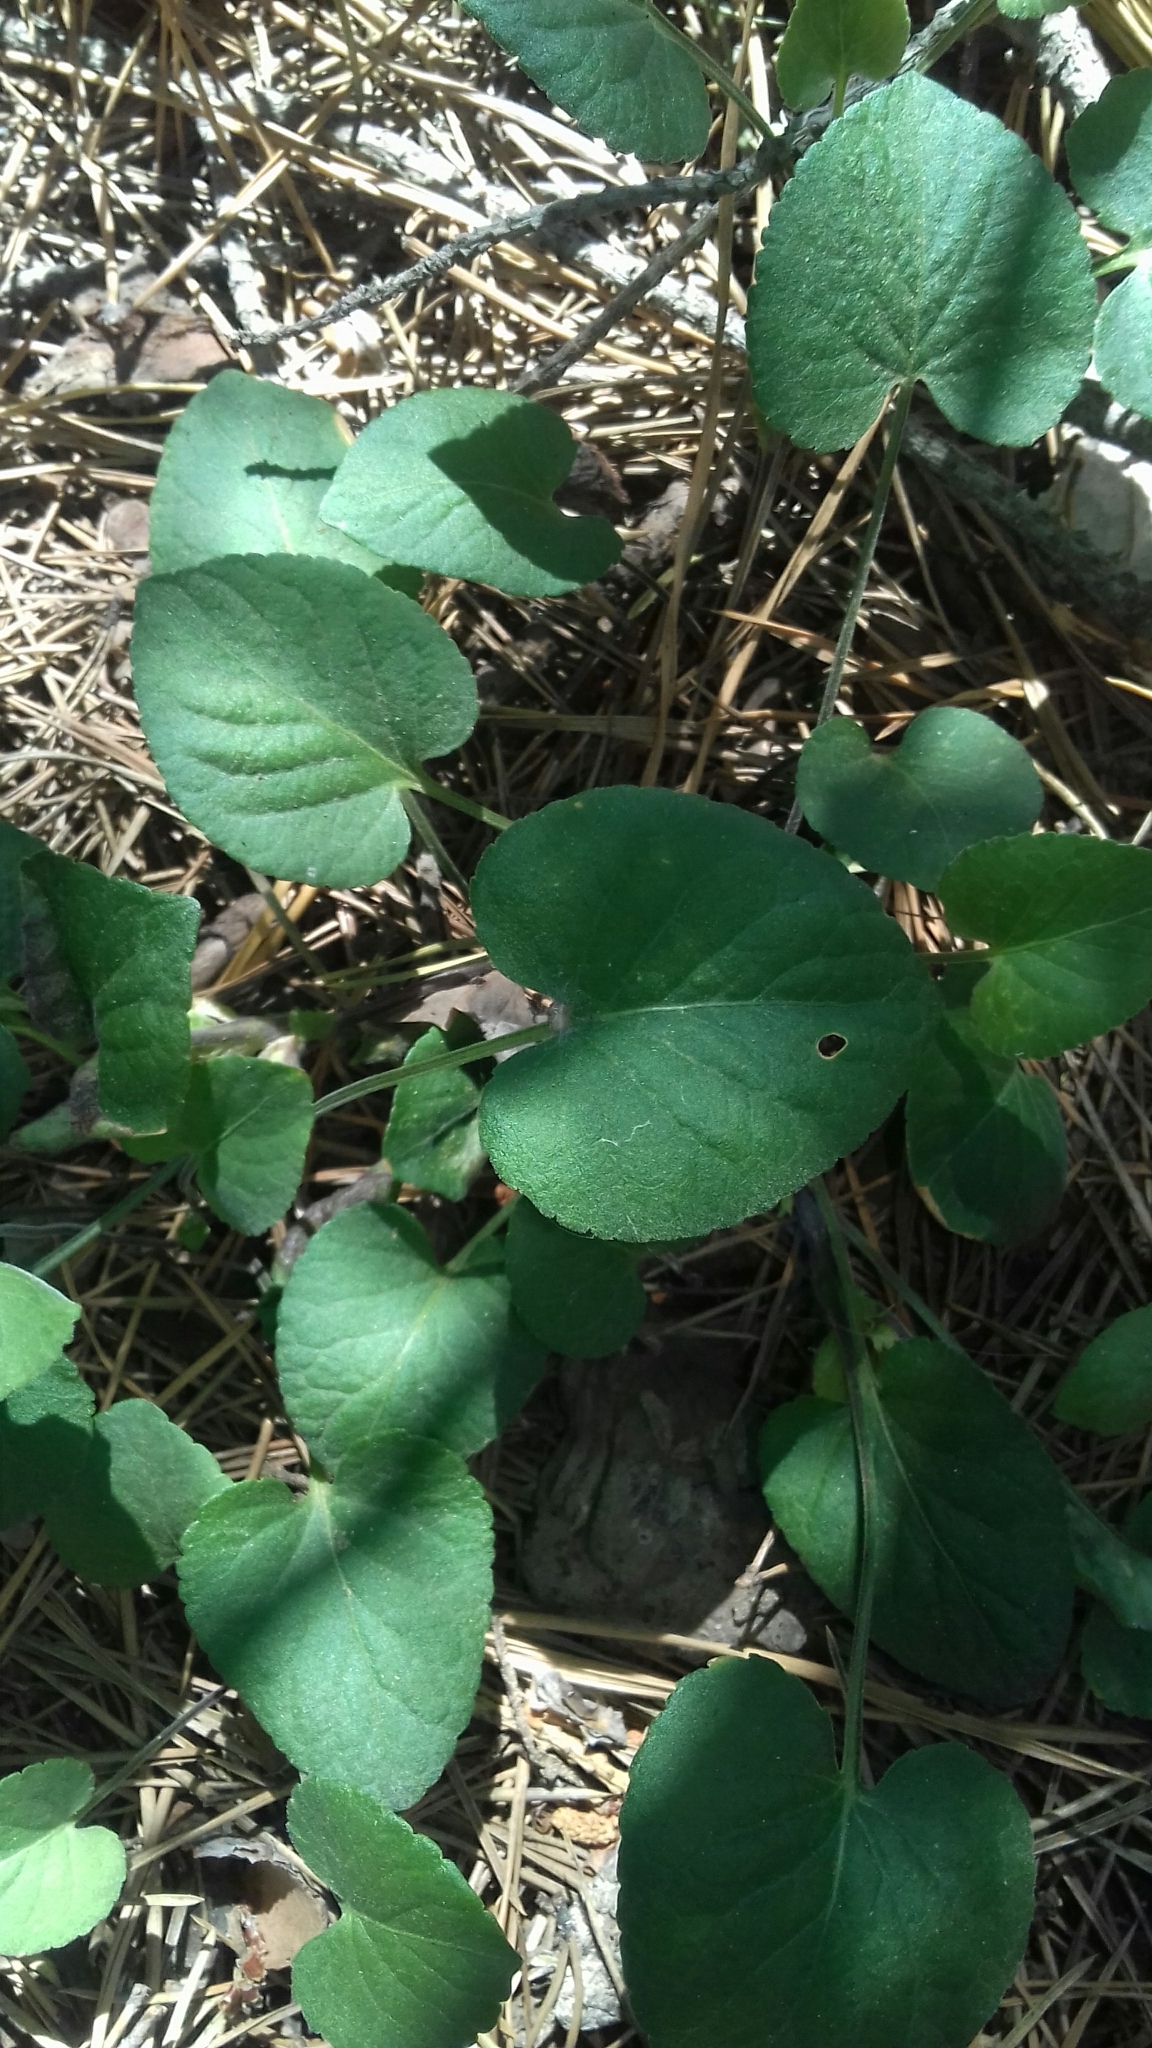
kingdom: Plantae
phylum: Tracheophyta
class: Magnoliopsida
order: Malpighiales
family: Violaceae
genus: Viola
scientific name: Viola collina
